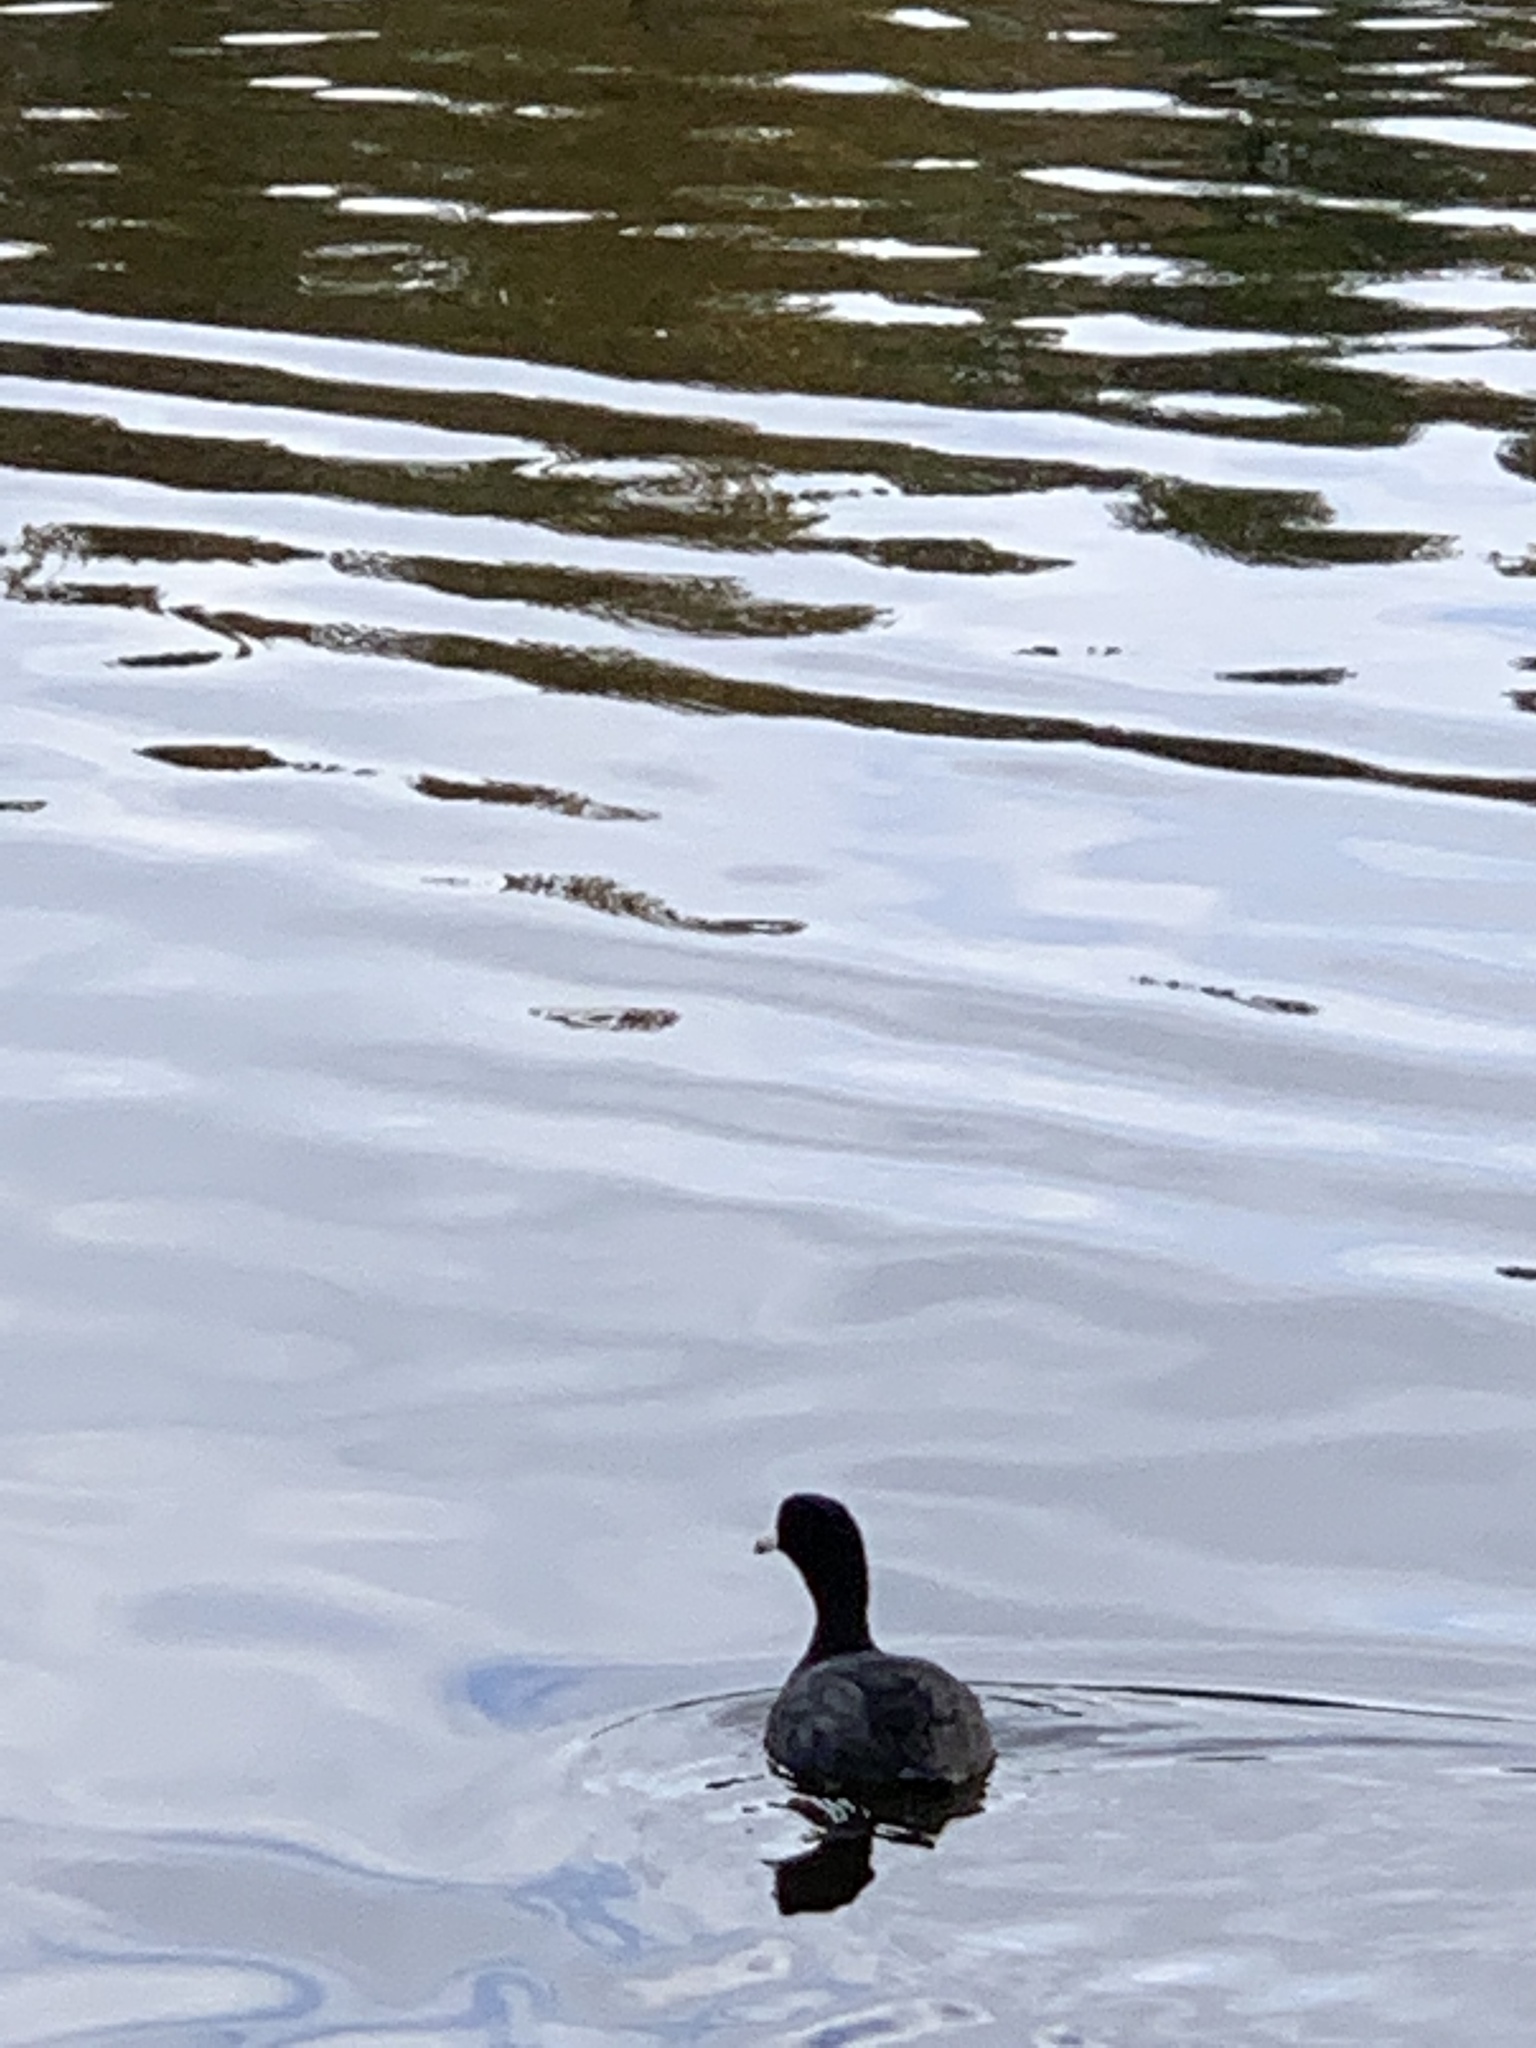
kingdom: Animalia
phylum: Chordata
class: Aves
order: Gruiformes
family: Rallidae
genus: Fulica
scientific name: Fulica americana
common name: American coot
